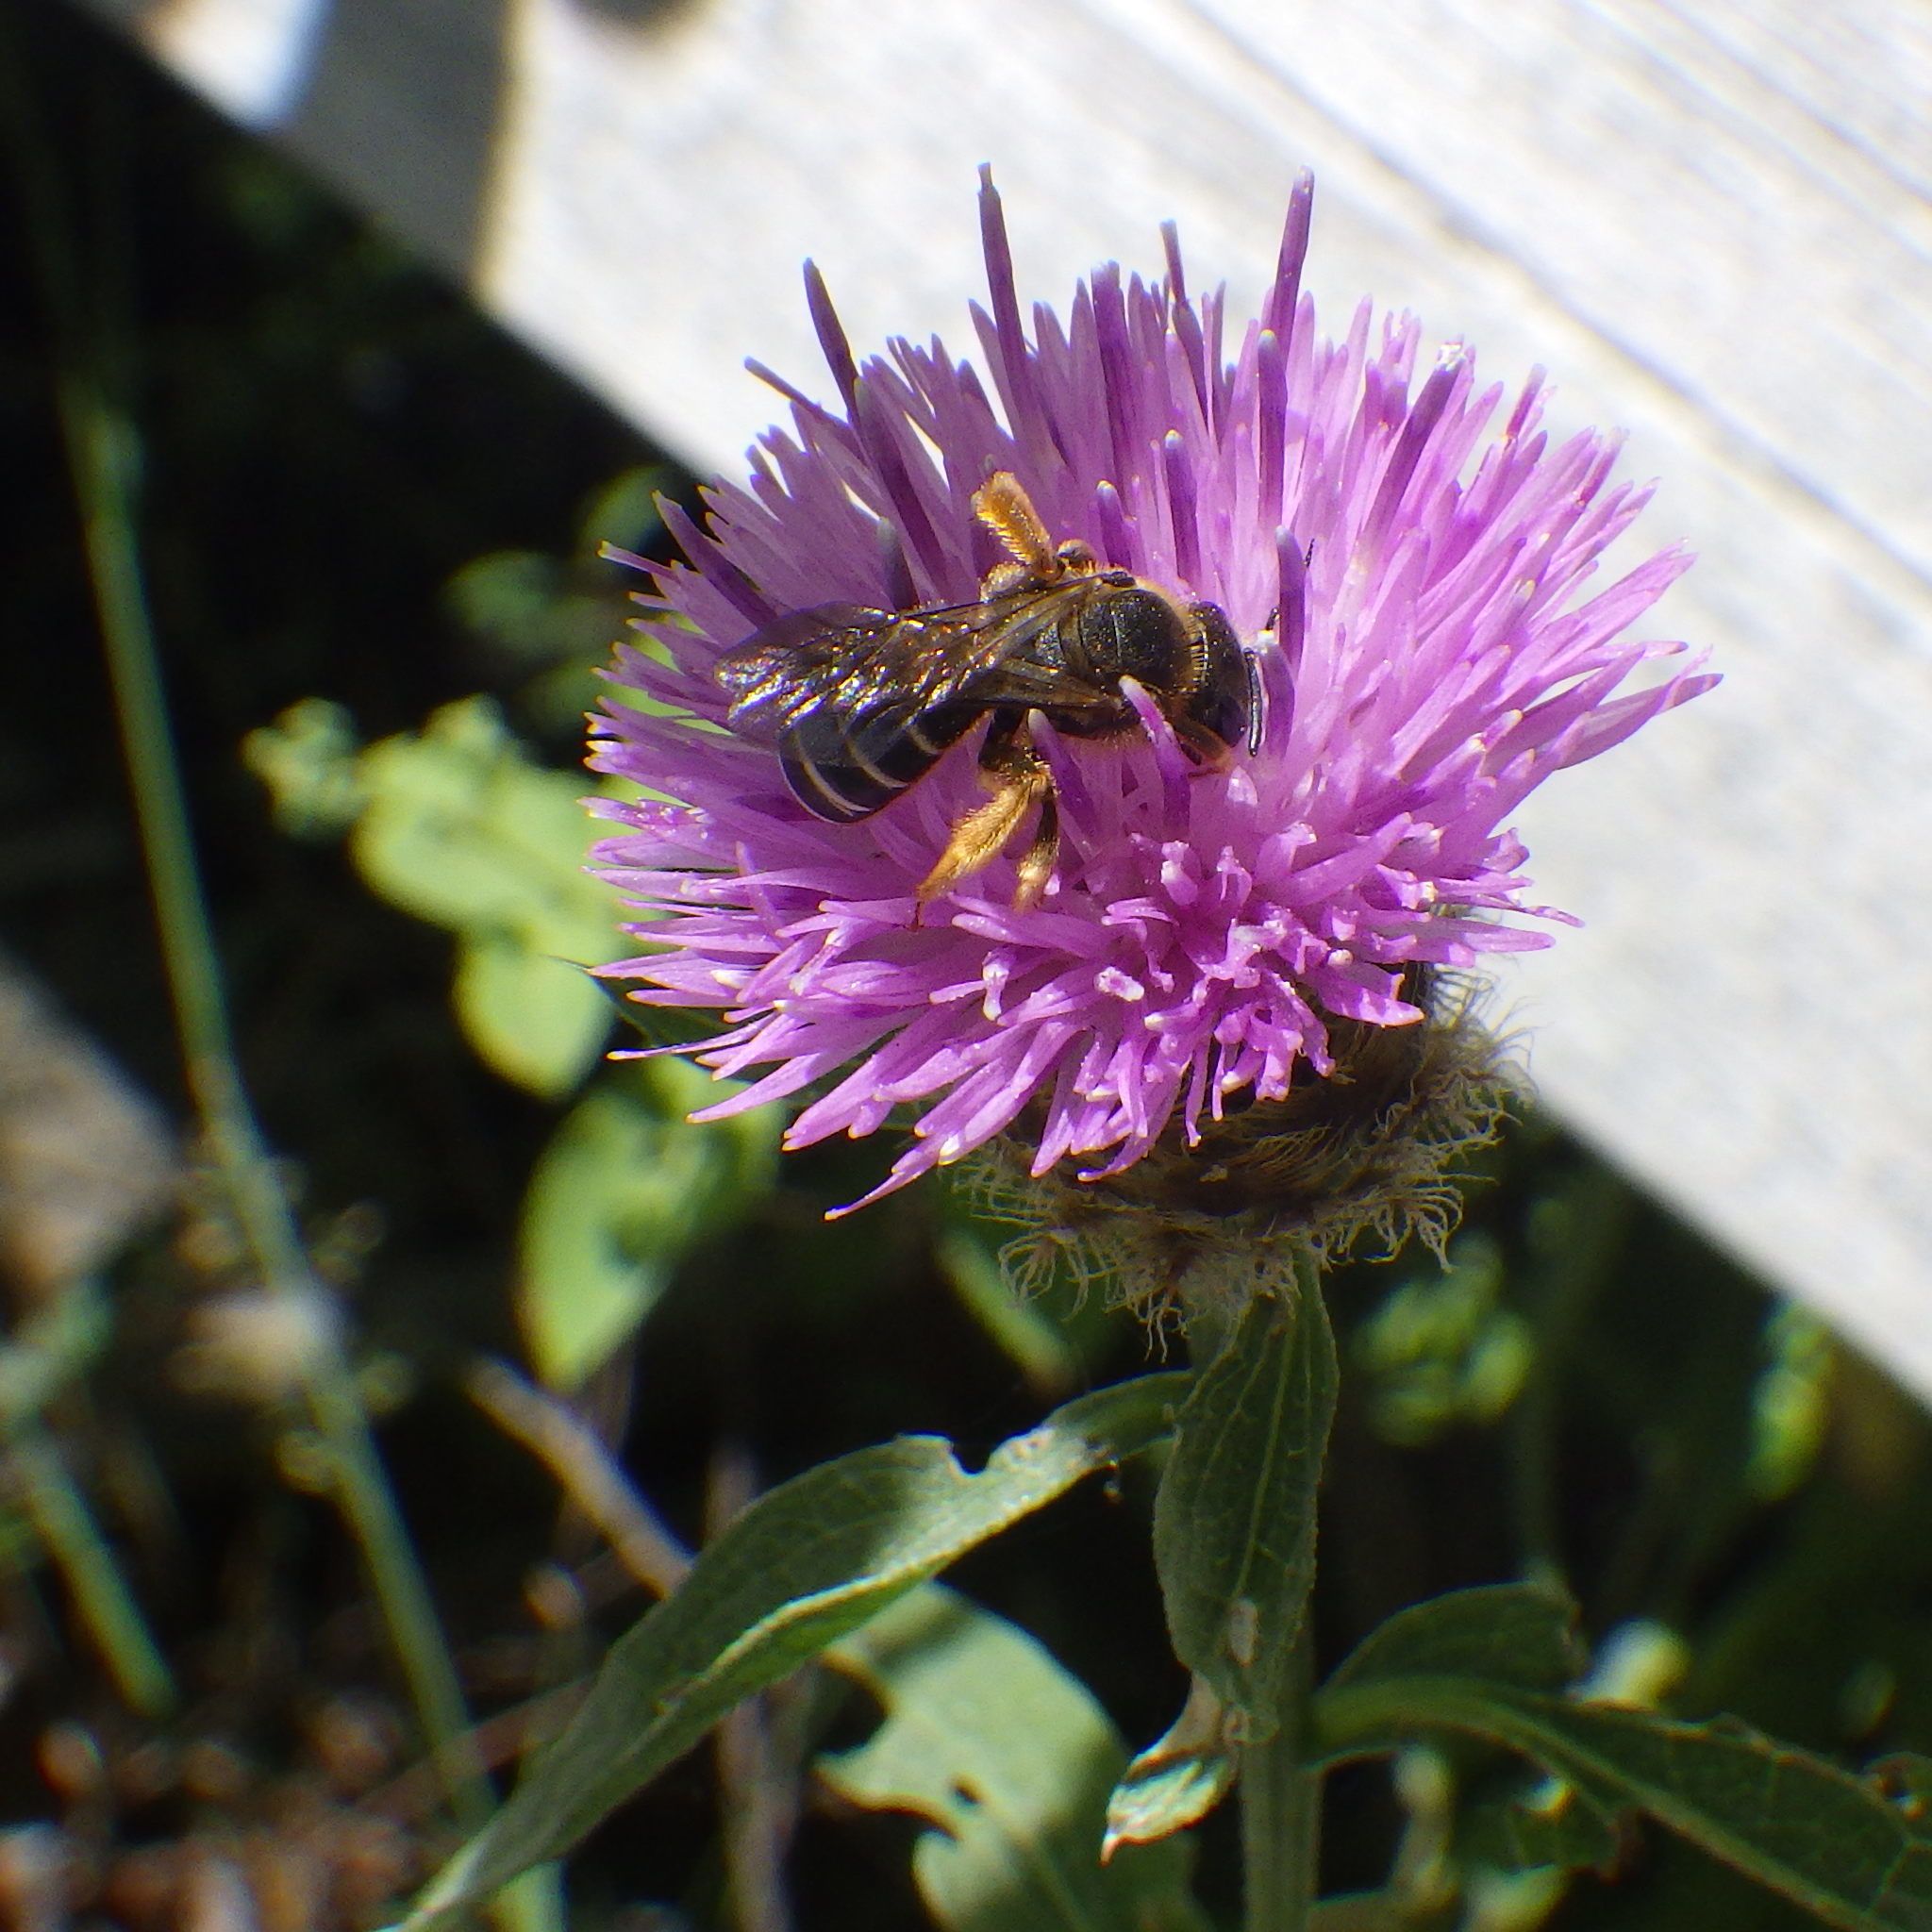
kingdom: Animalia
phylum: Arthropoda
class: Insecta
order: Hymenoptera
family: Halictidae
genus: Halictus
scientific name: Halictus rubicundus
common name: Orange-legged furrow bee
